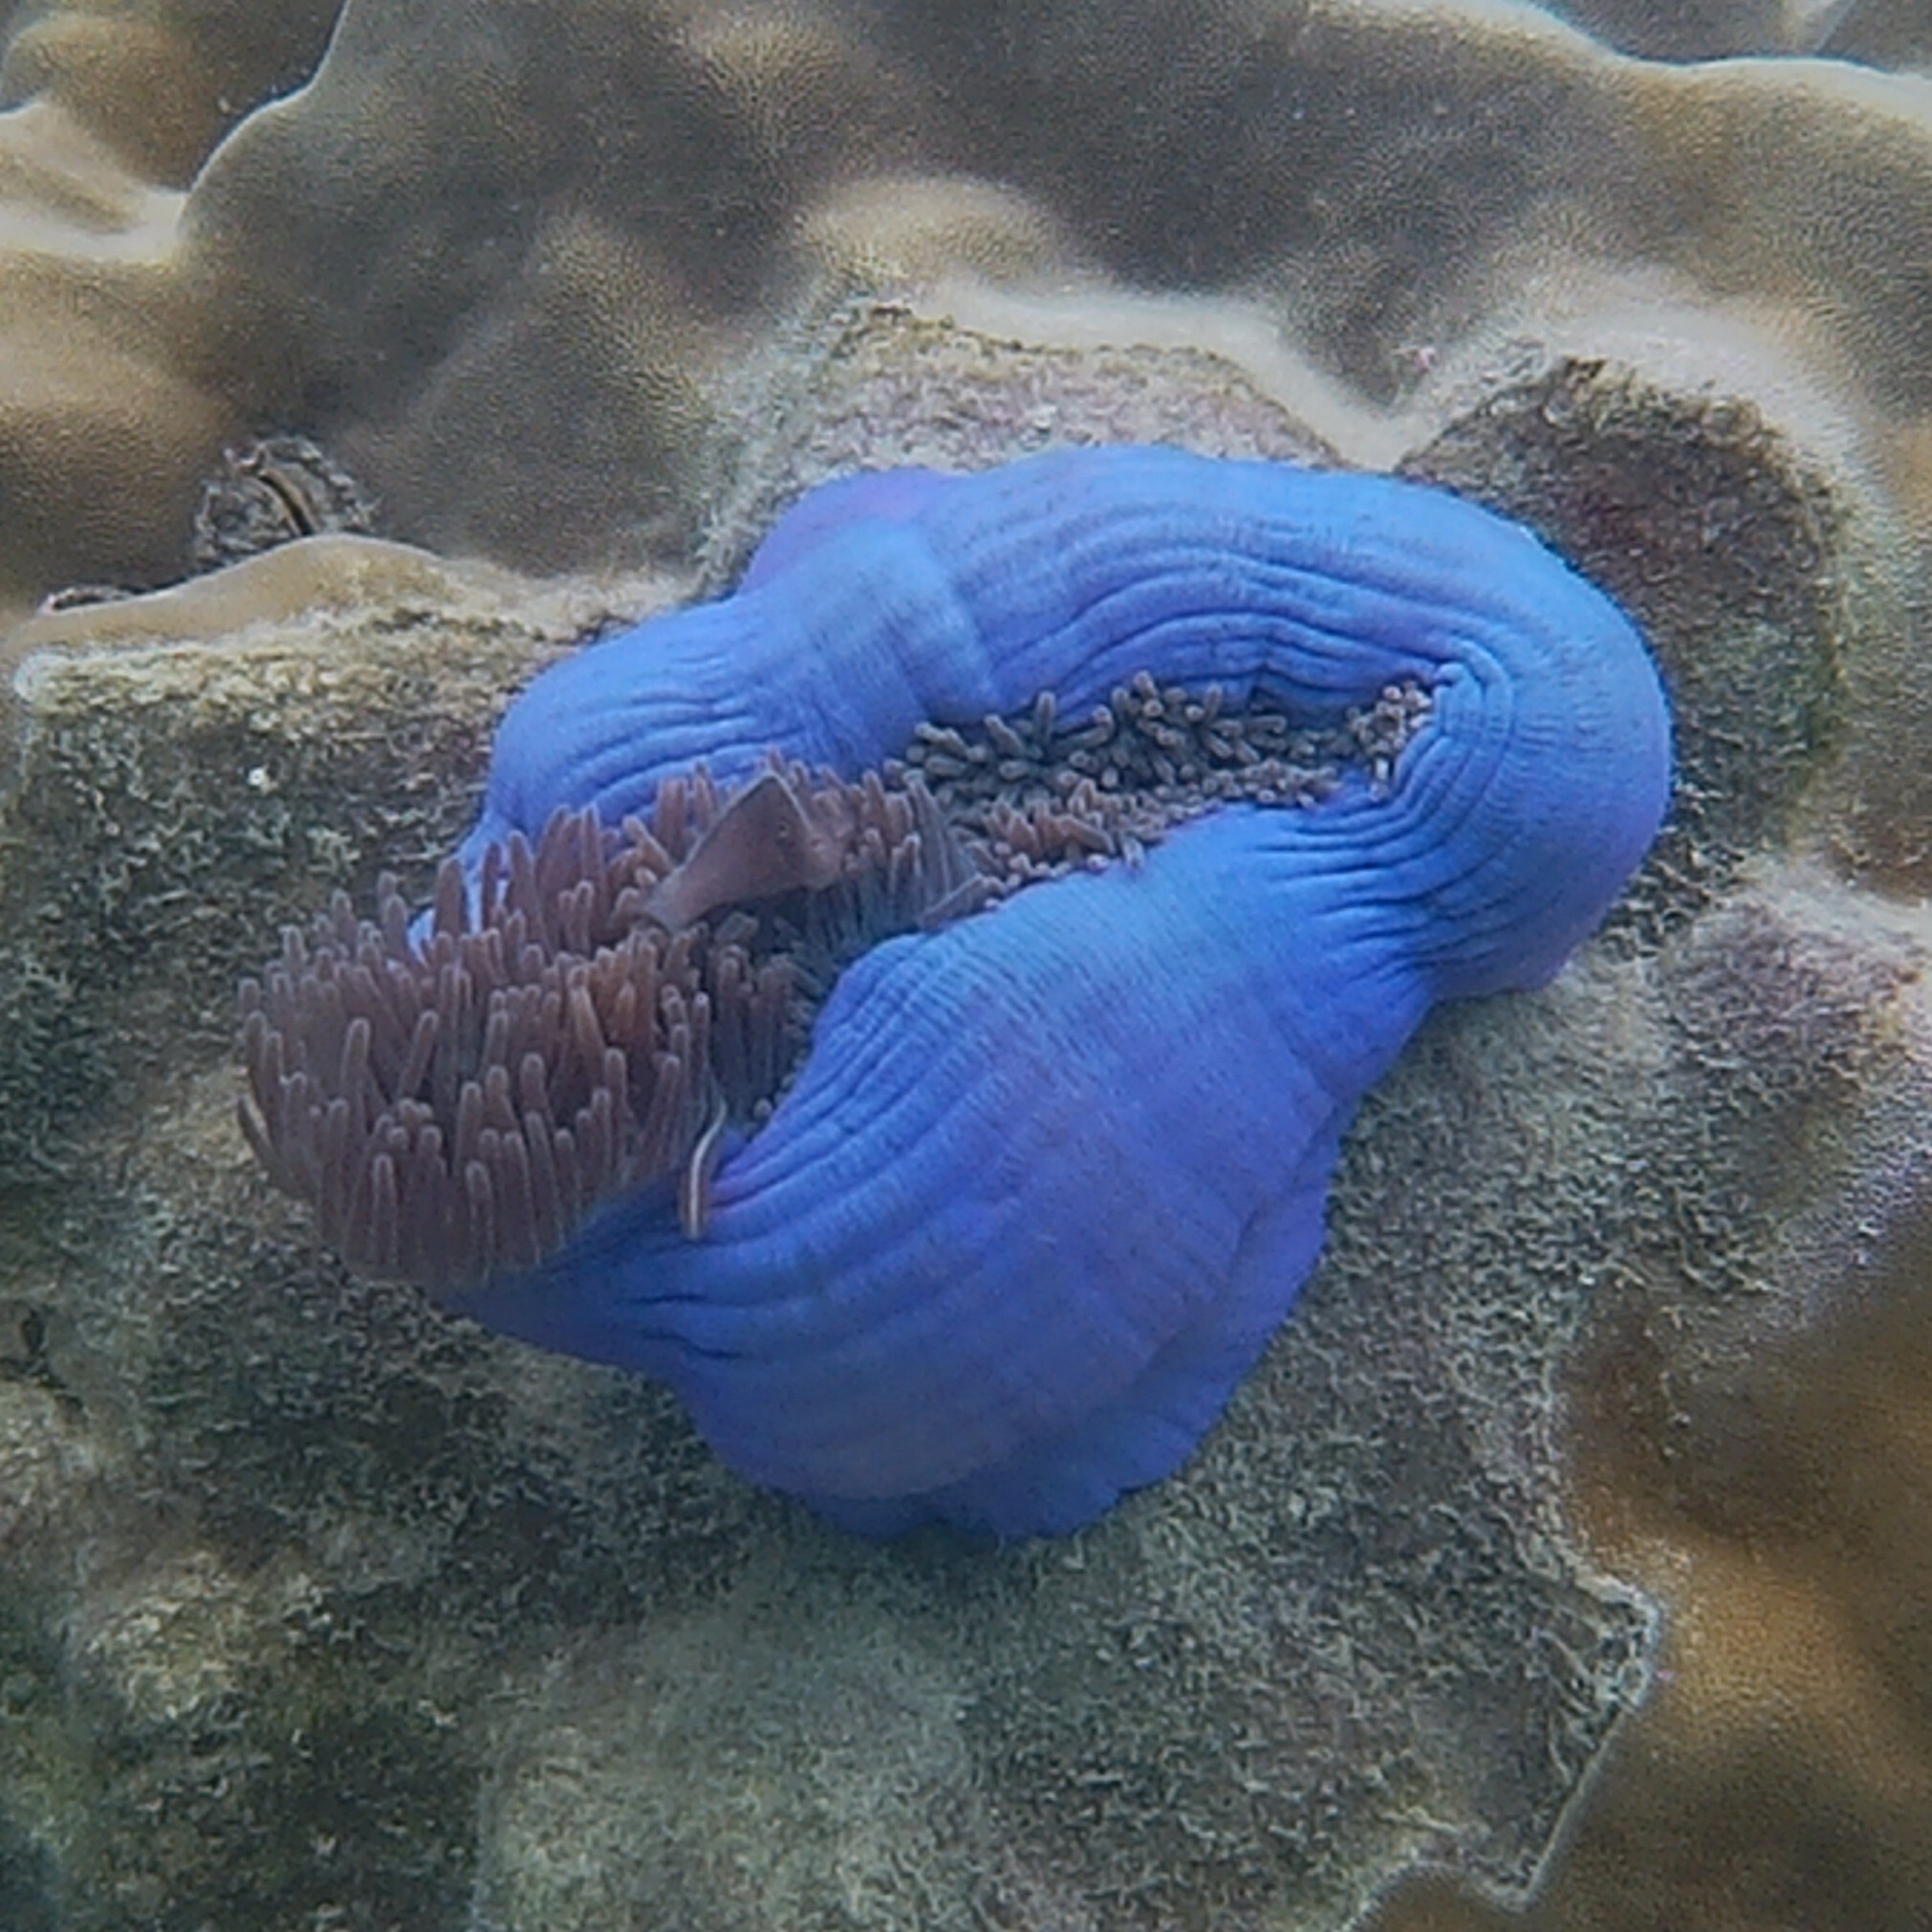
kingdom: Animalia
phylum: Chordata
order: Perciformes
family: Pomacentridae
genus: Amphiprion
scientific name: Amphiprion akallopisos
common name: Skunk clownfish
